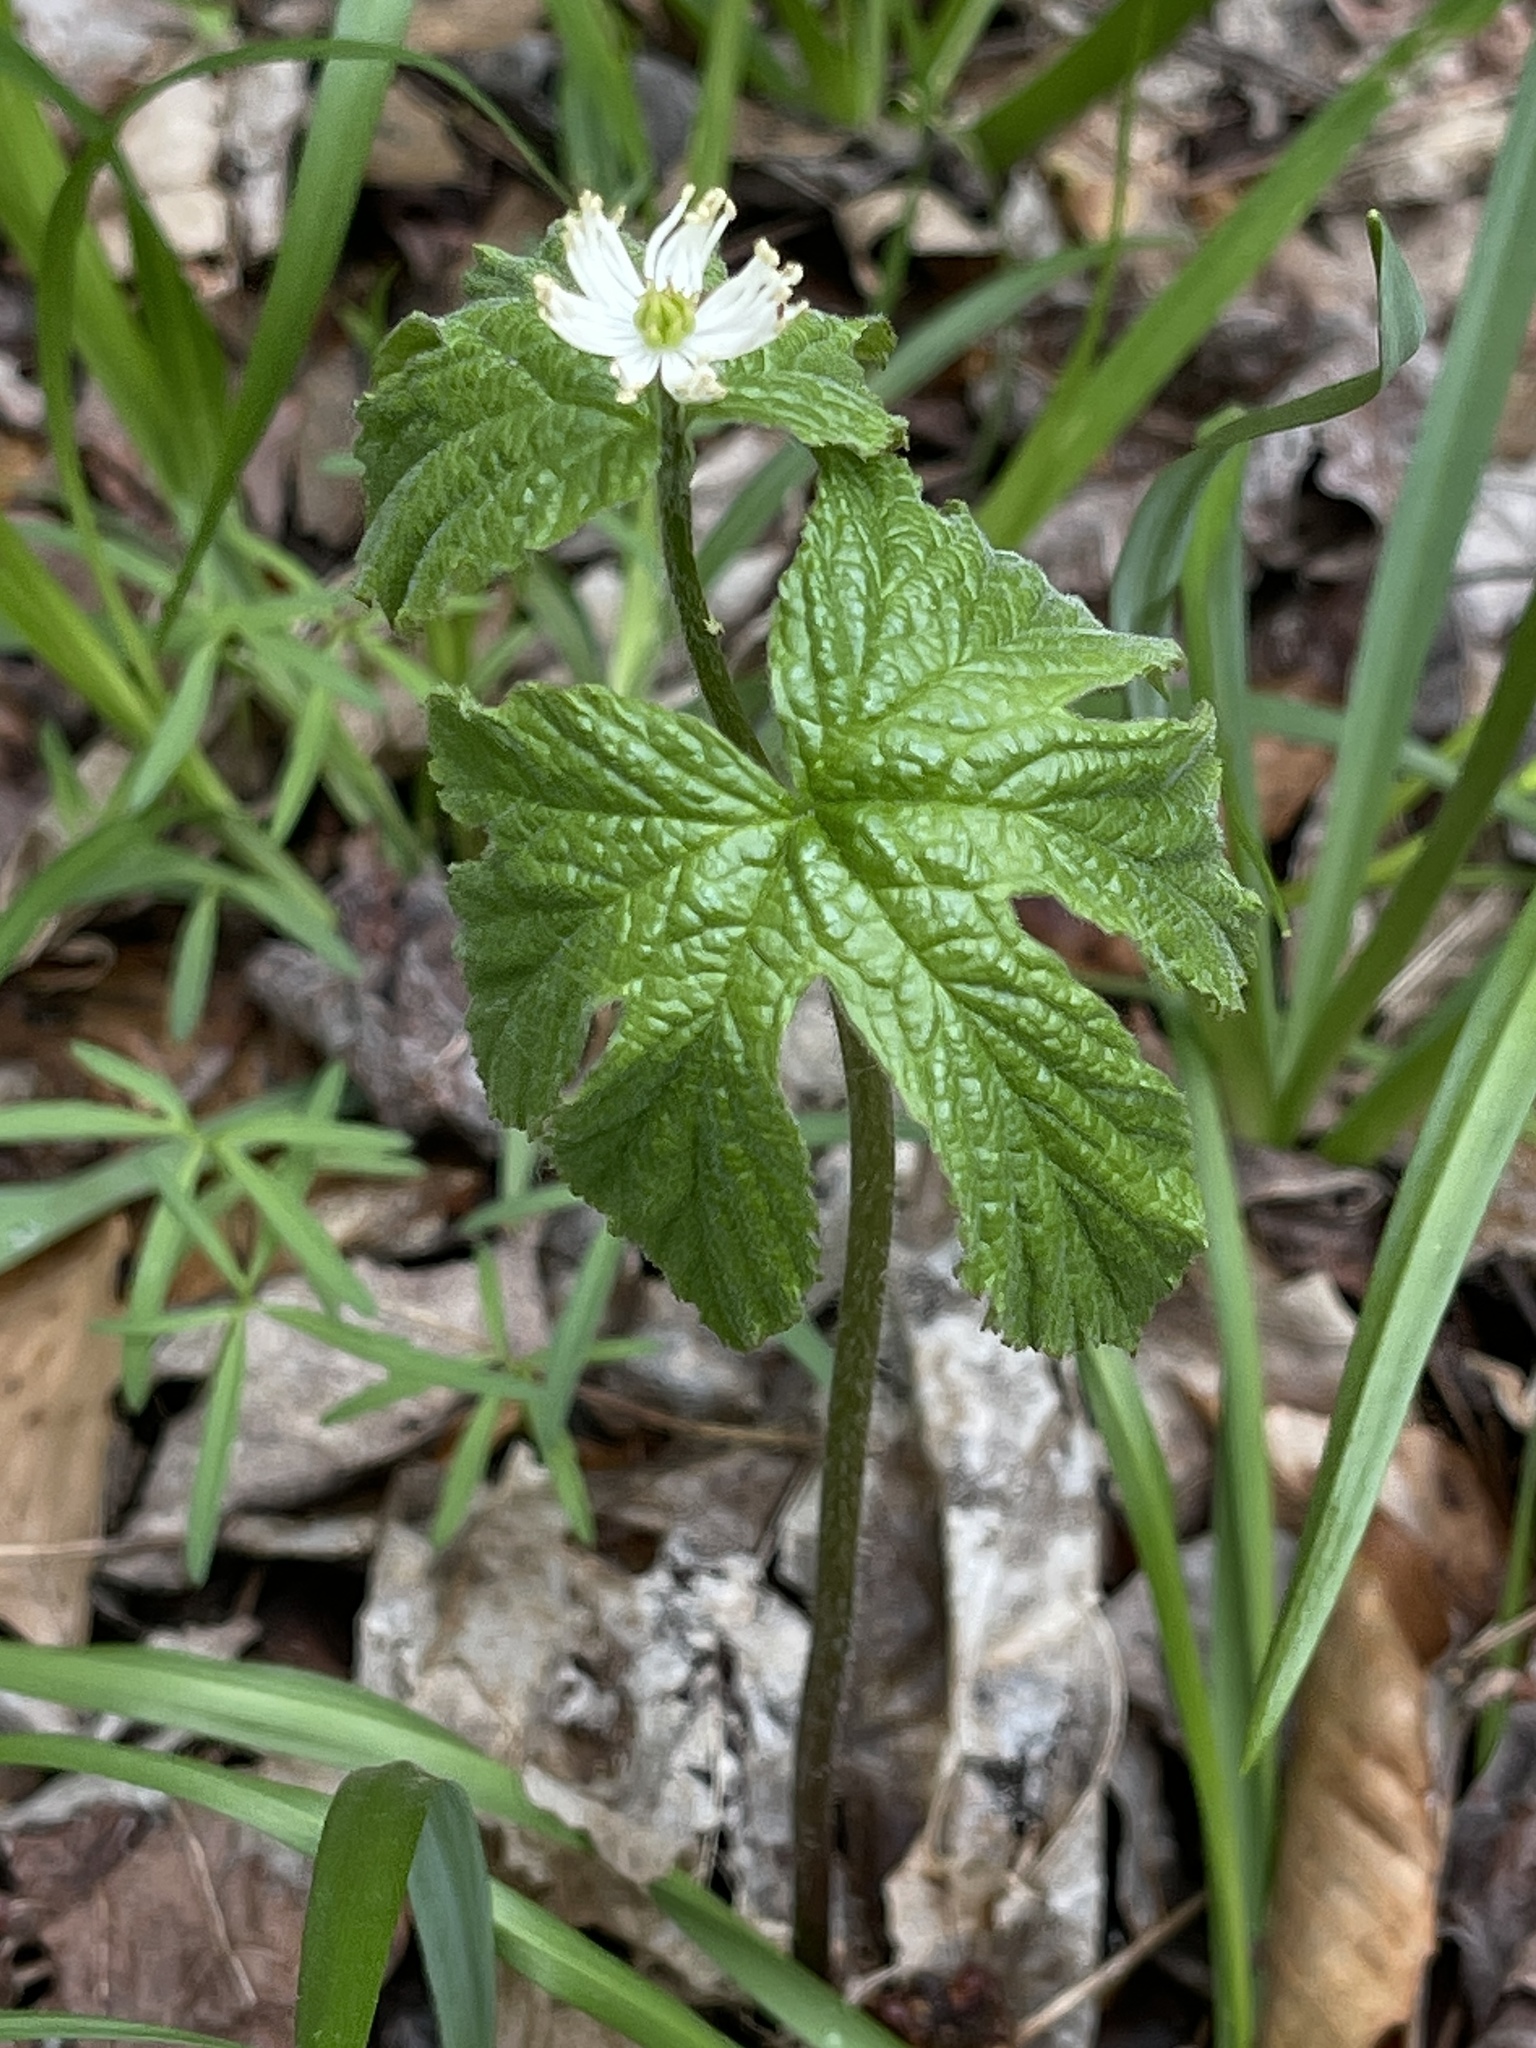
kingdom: Plantae
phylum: Tracheophyta
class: Magnoliopsida
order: Ranunculales
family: Ranunculaceae
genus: Hydrastis
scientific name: Hydrastis canadensis
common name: Goldenseal
